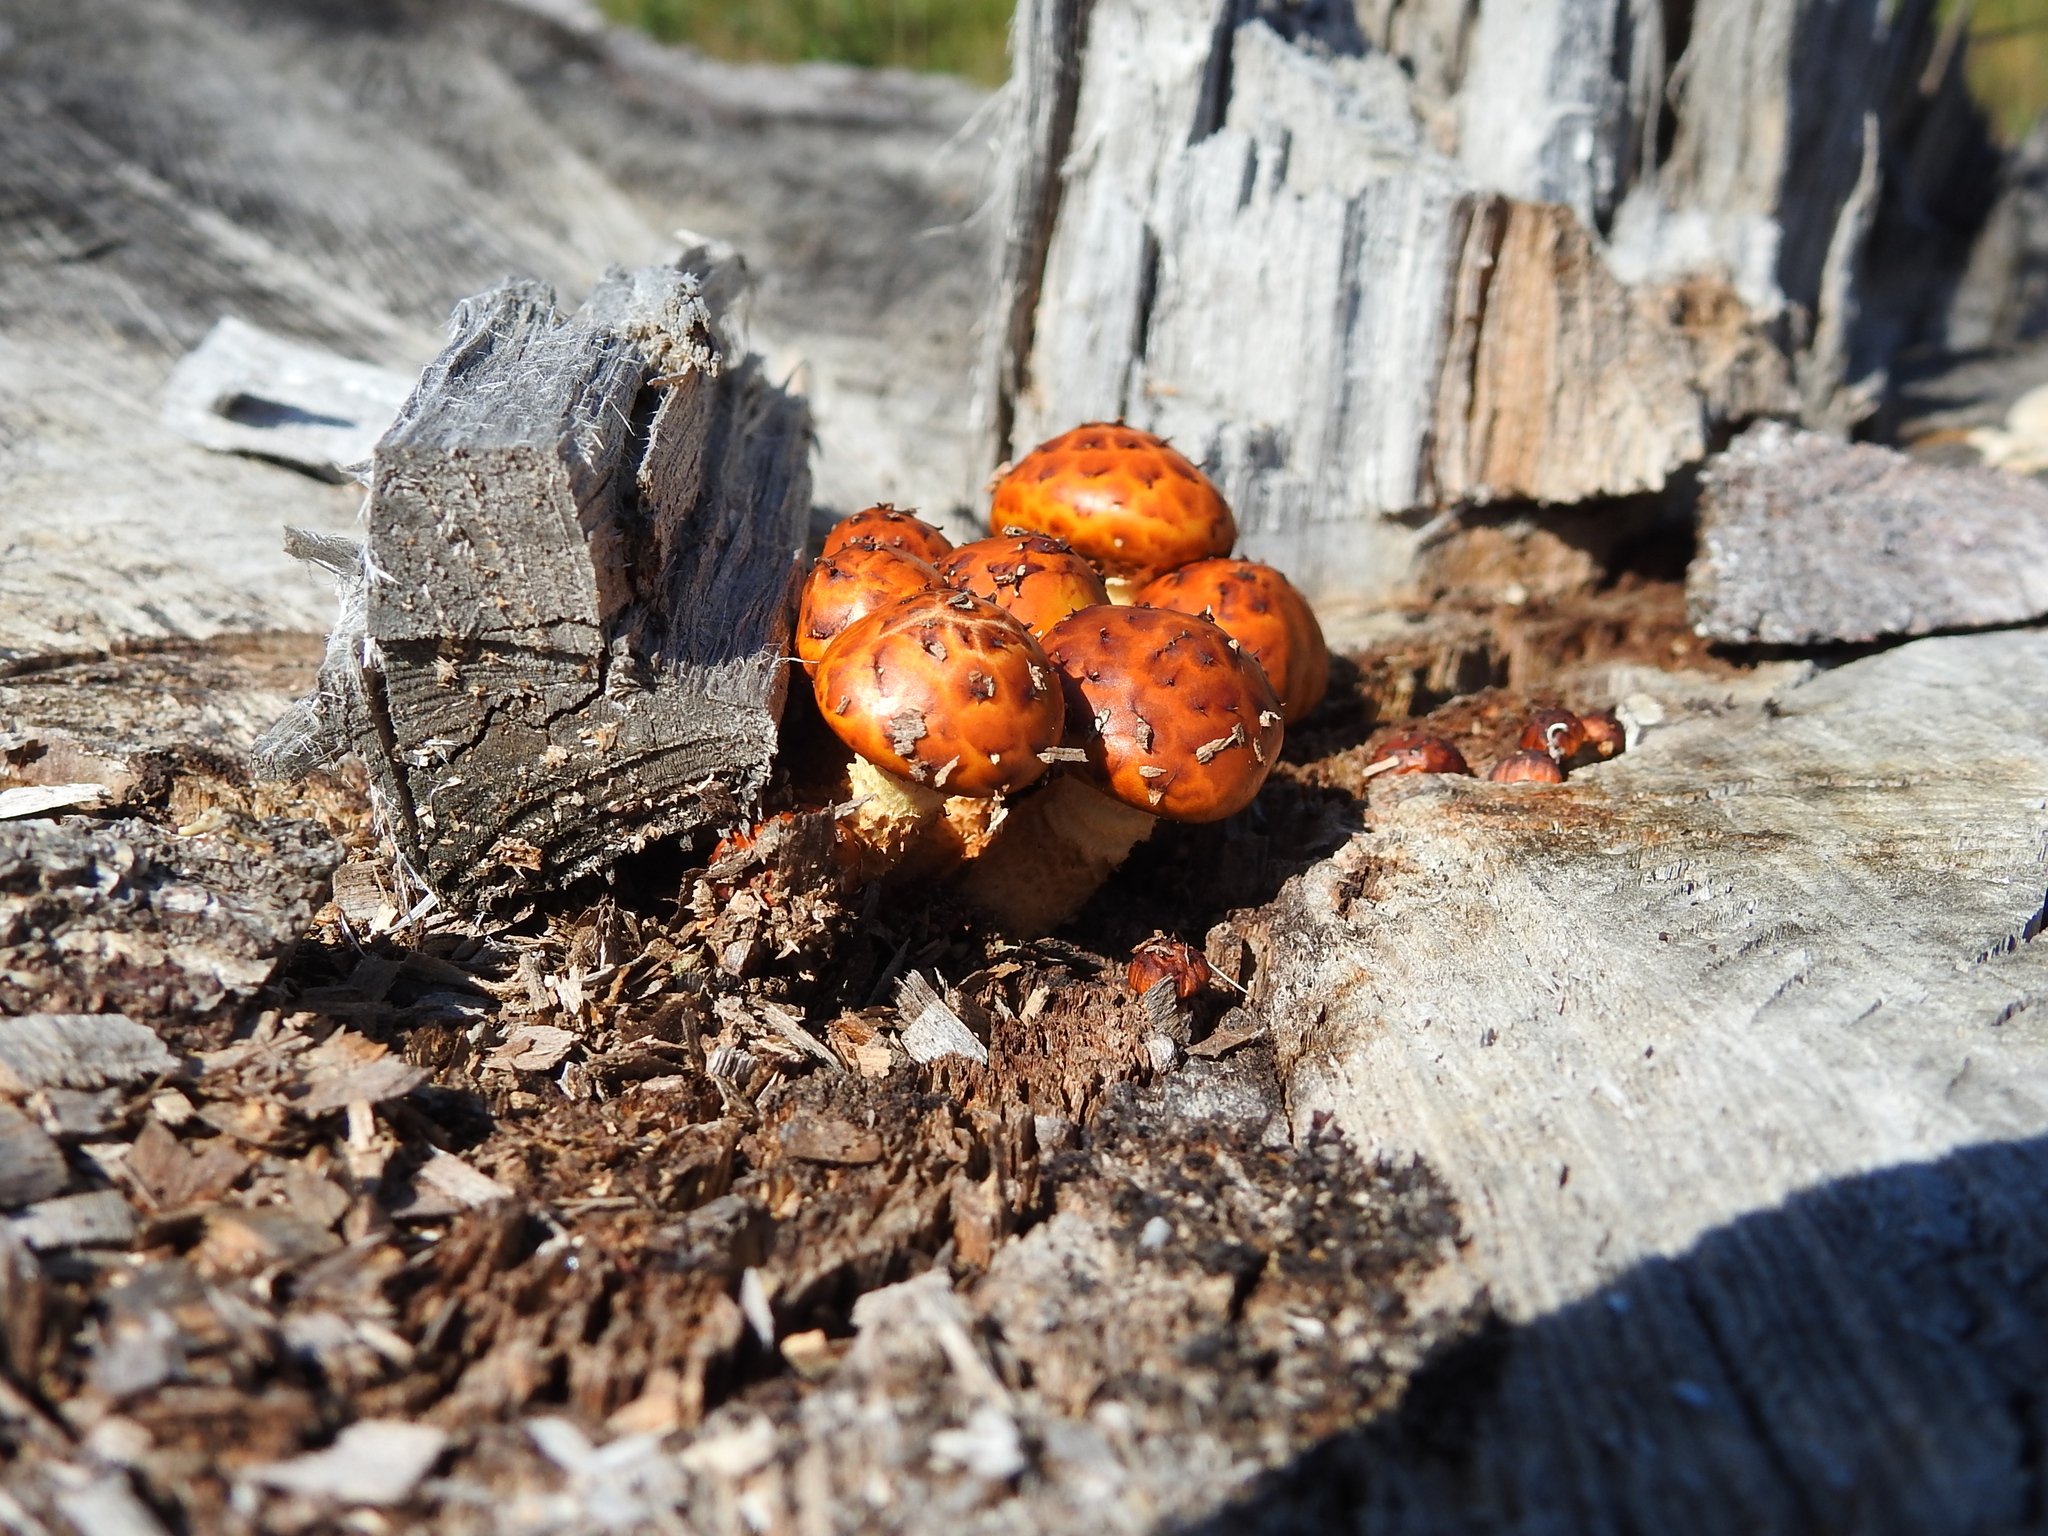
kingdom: Fungi
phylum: Basidiomycota
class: Agaricomycetes
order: Agaricales
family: Strophariaceae
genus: Pholiota
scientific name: Pholiota aurivella
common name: Golden scalycap
